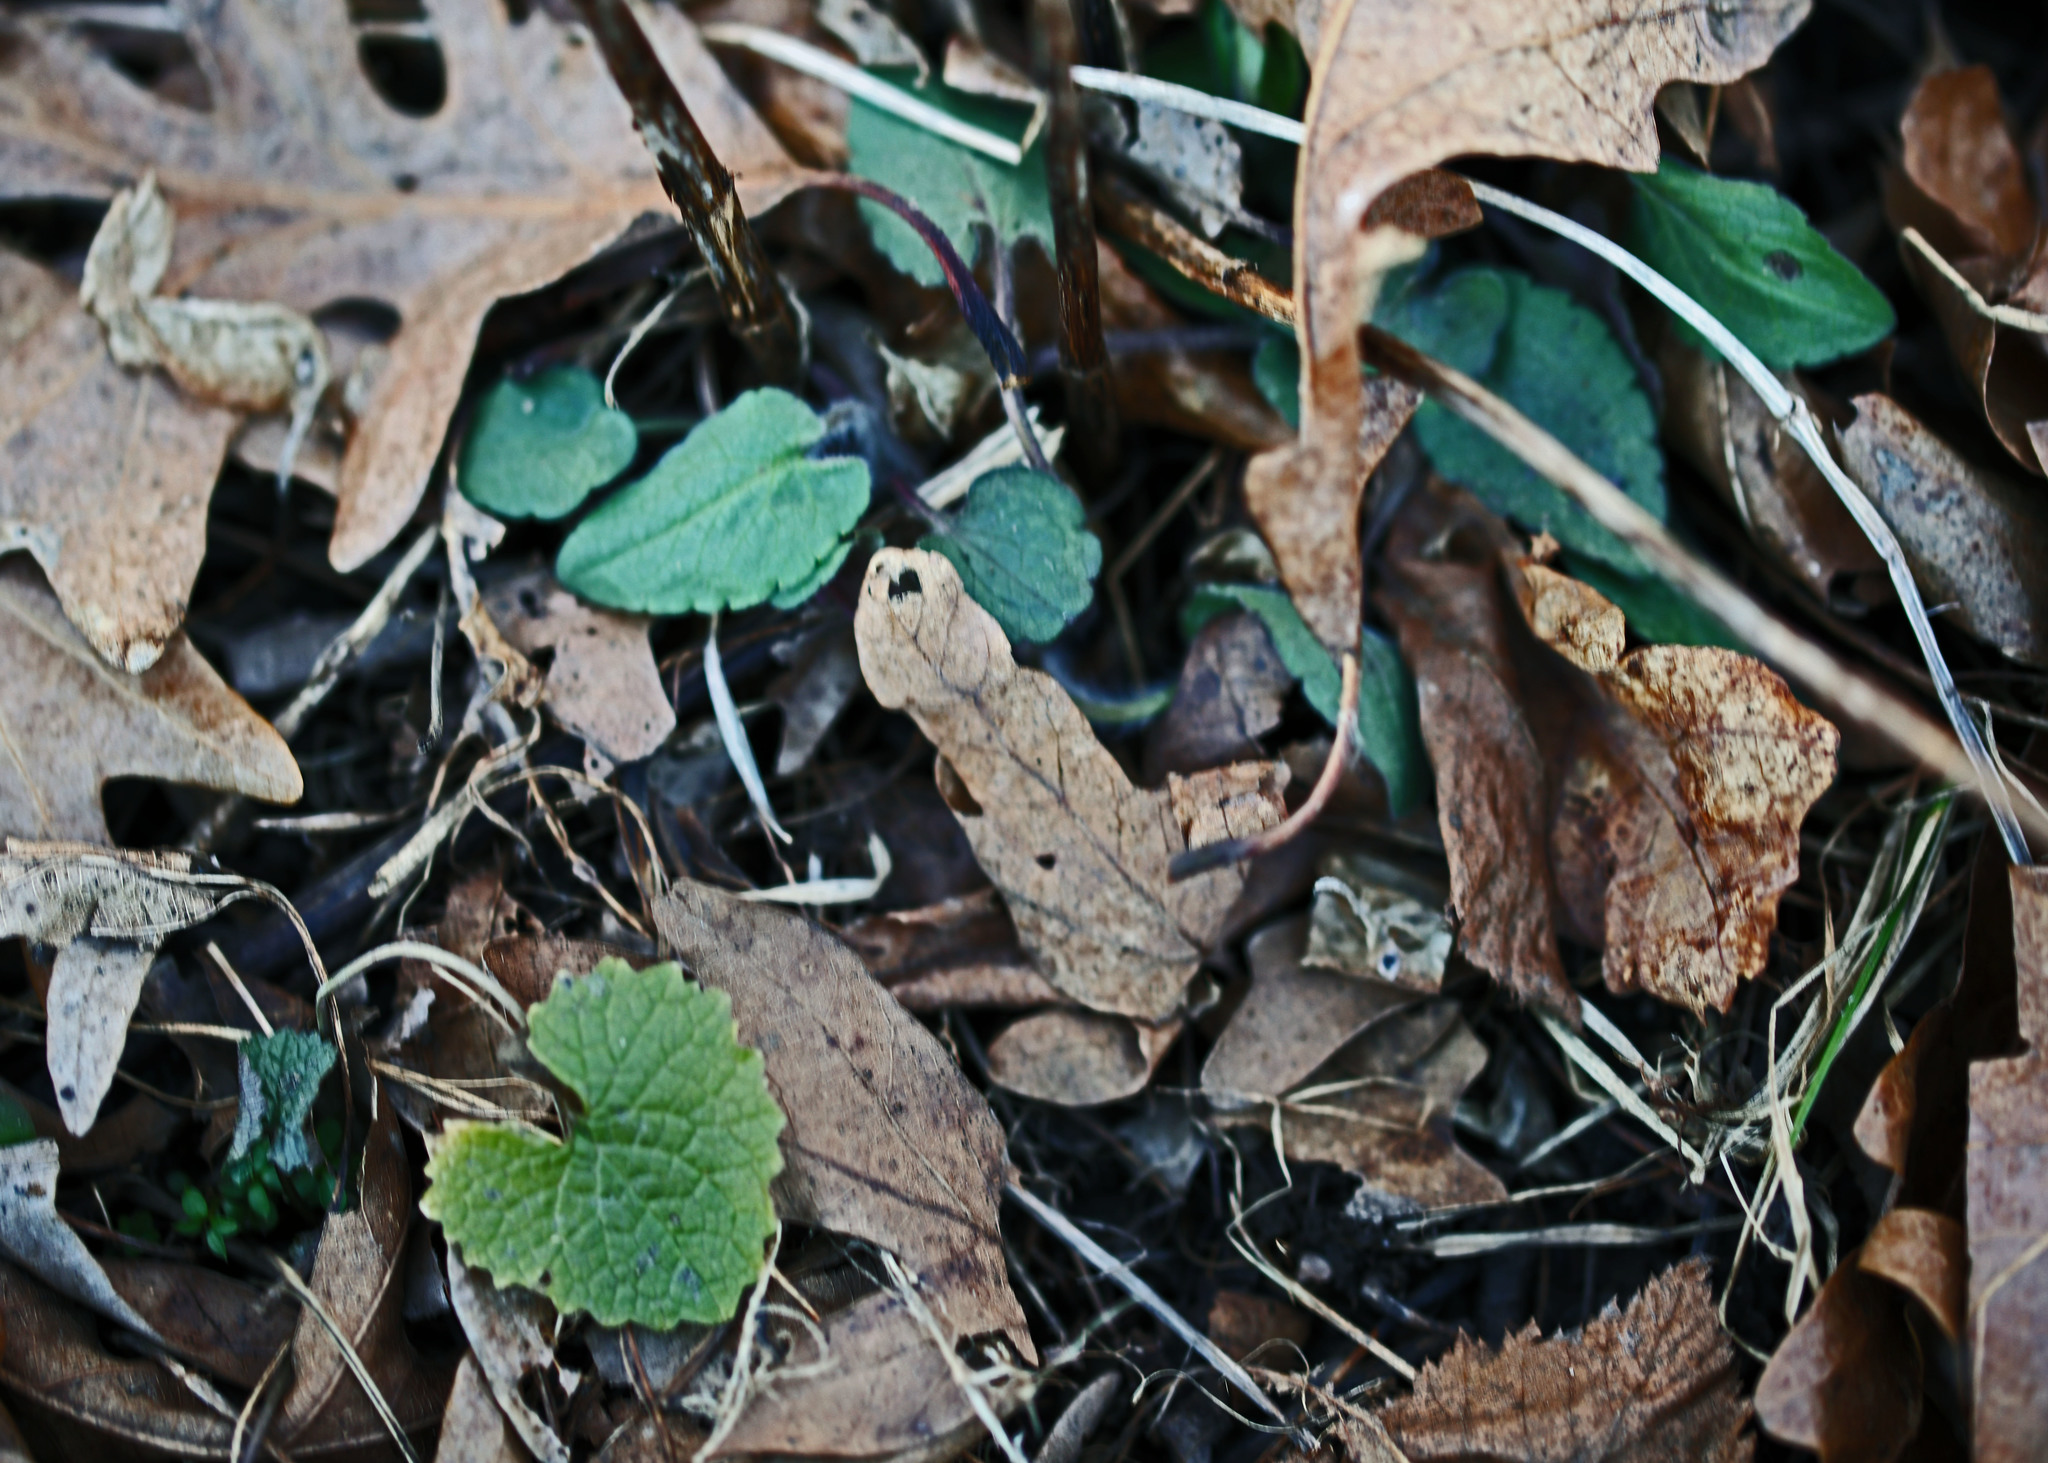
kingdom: Plantae
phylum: Tracheophyta
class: Magnoliopsida
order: Brassicales
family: Brassicaceae
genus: Alliaria
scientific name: Alliaria petiolata
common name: Garlic mustard
